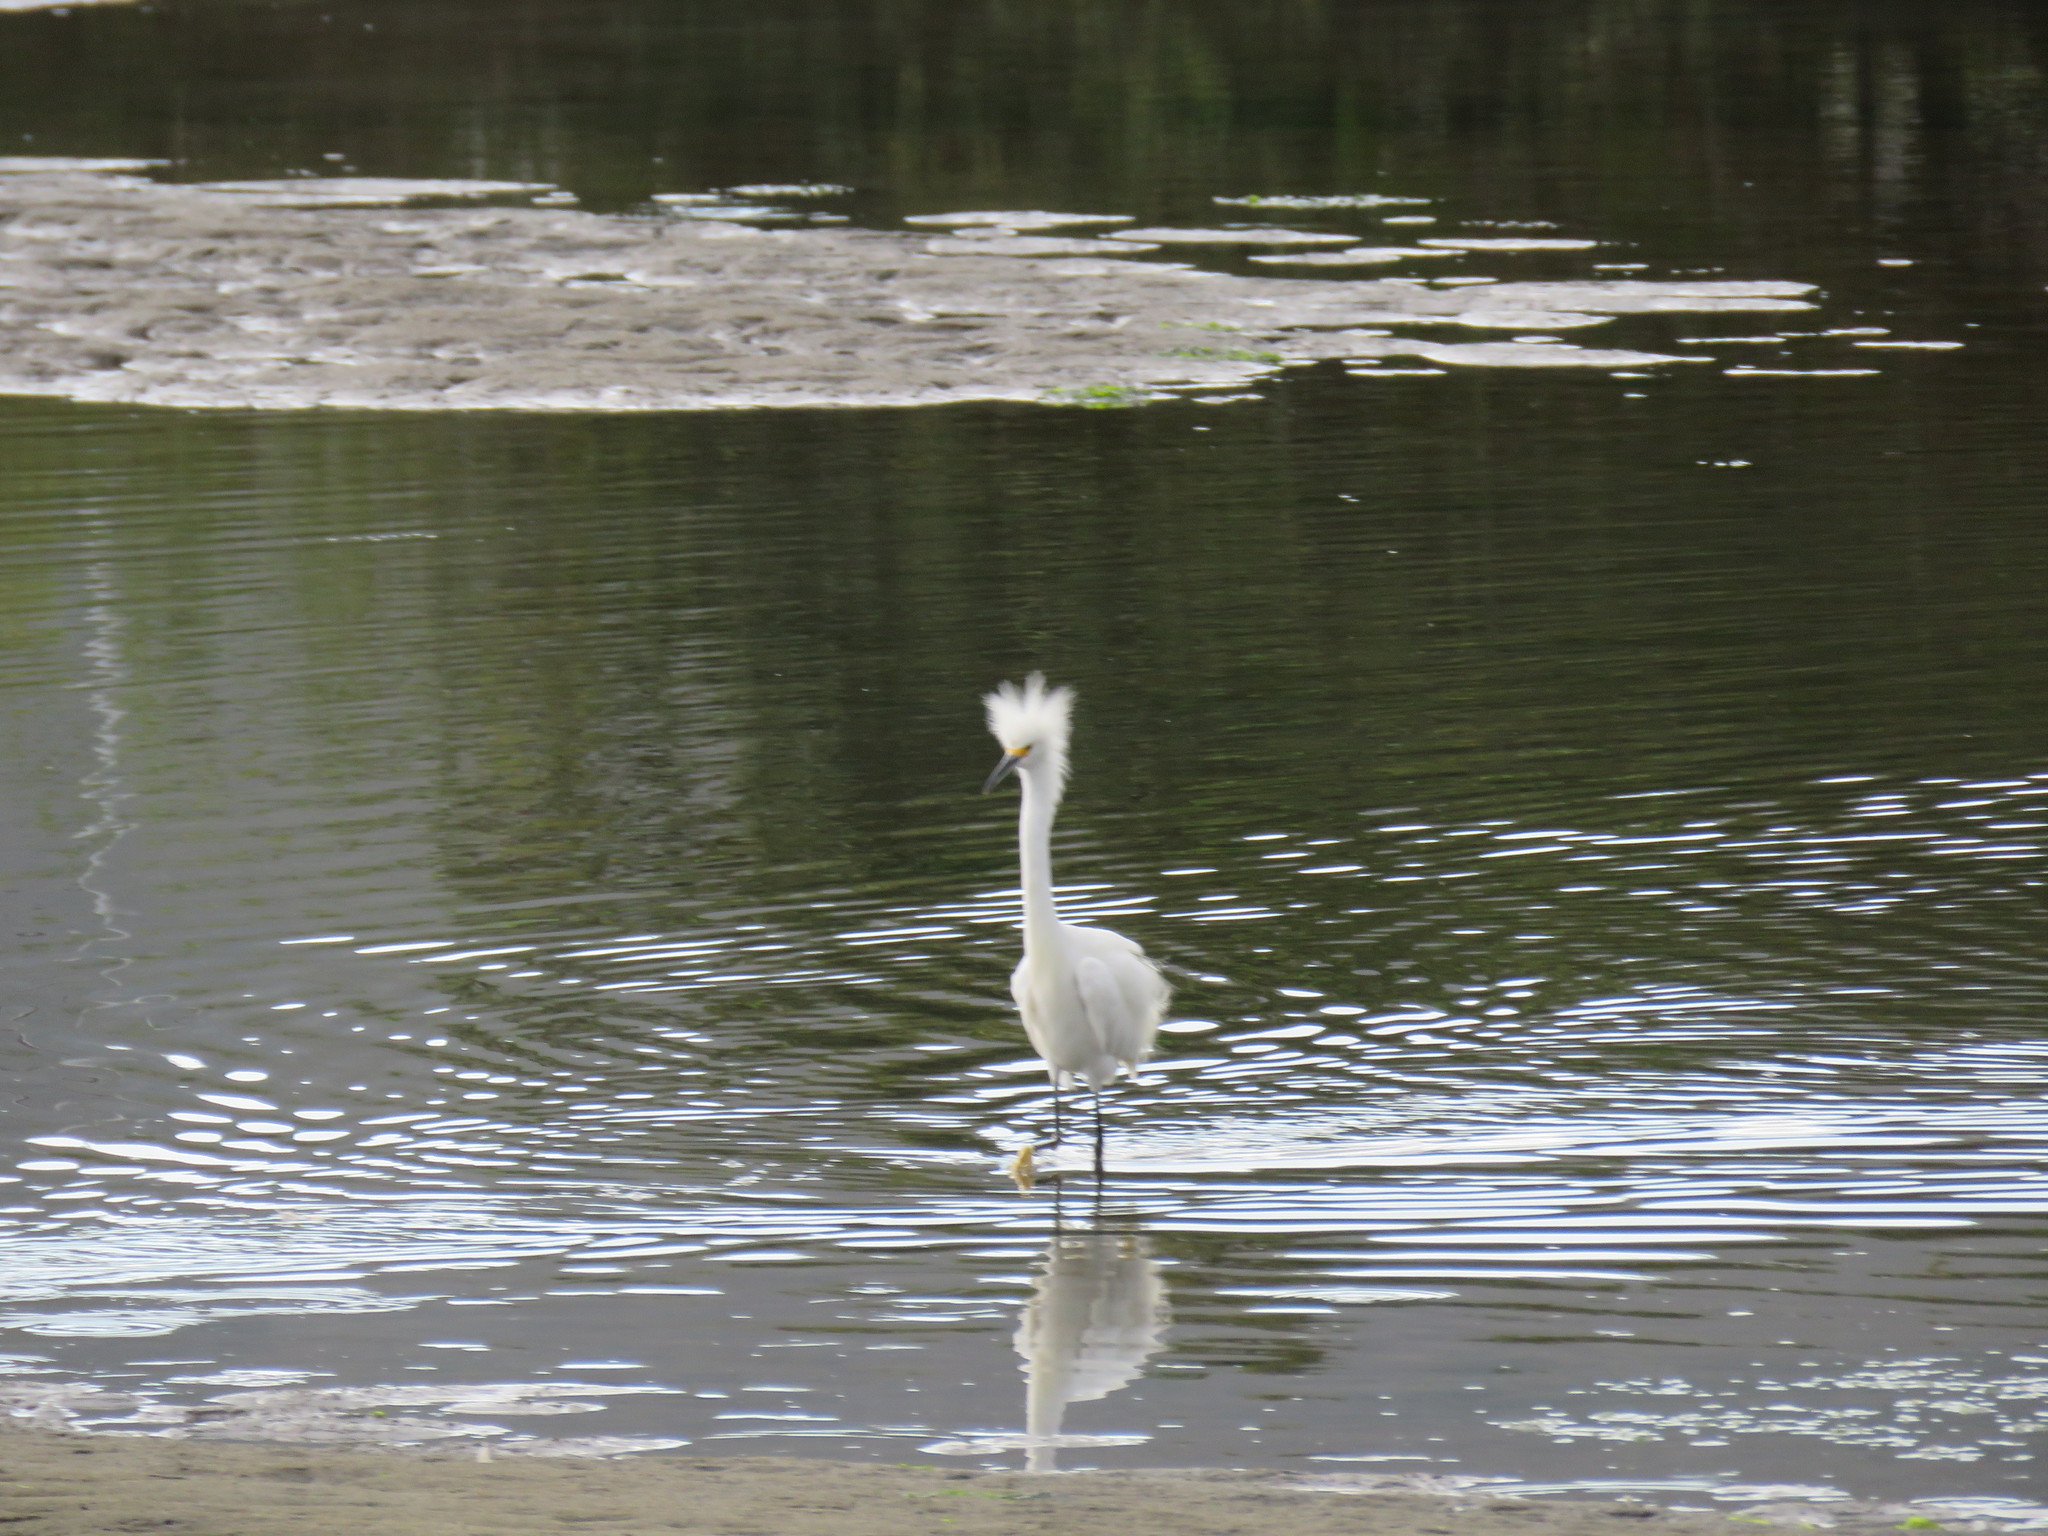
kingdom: Animalia
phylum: Chordata
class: Aves
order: Pelecaniformes
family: Ardeidae
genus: Egretta
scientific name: Egretta thula
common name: Snowy egret
